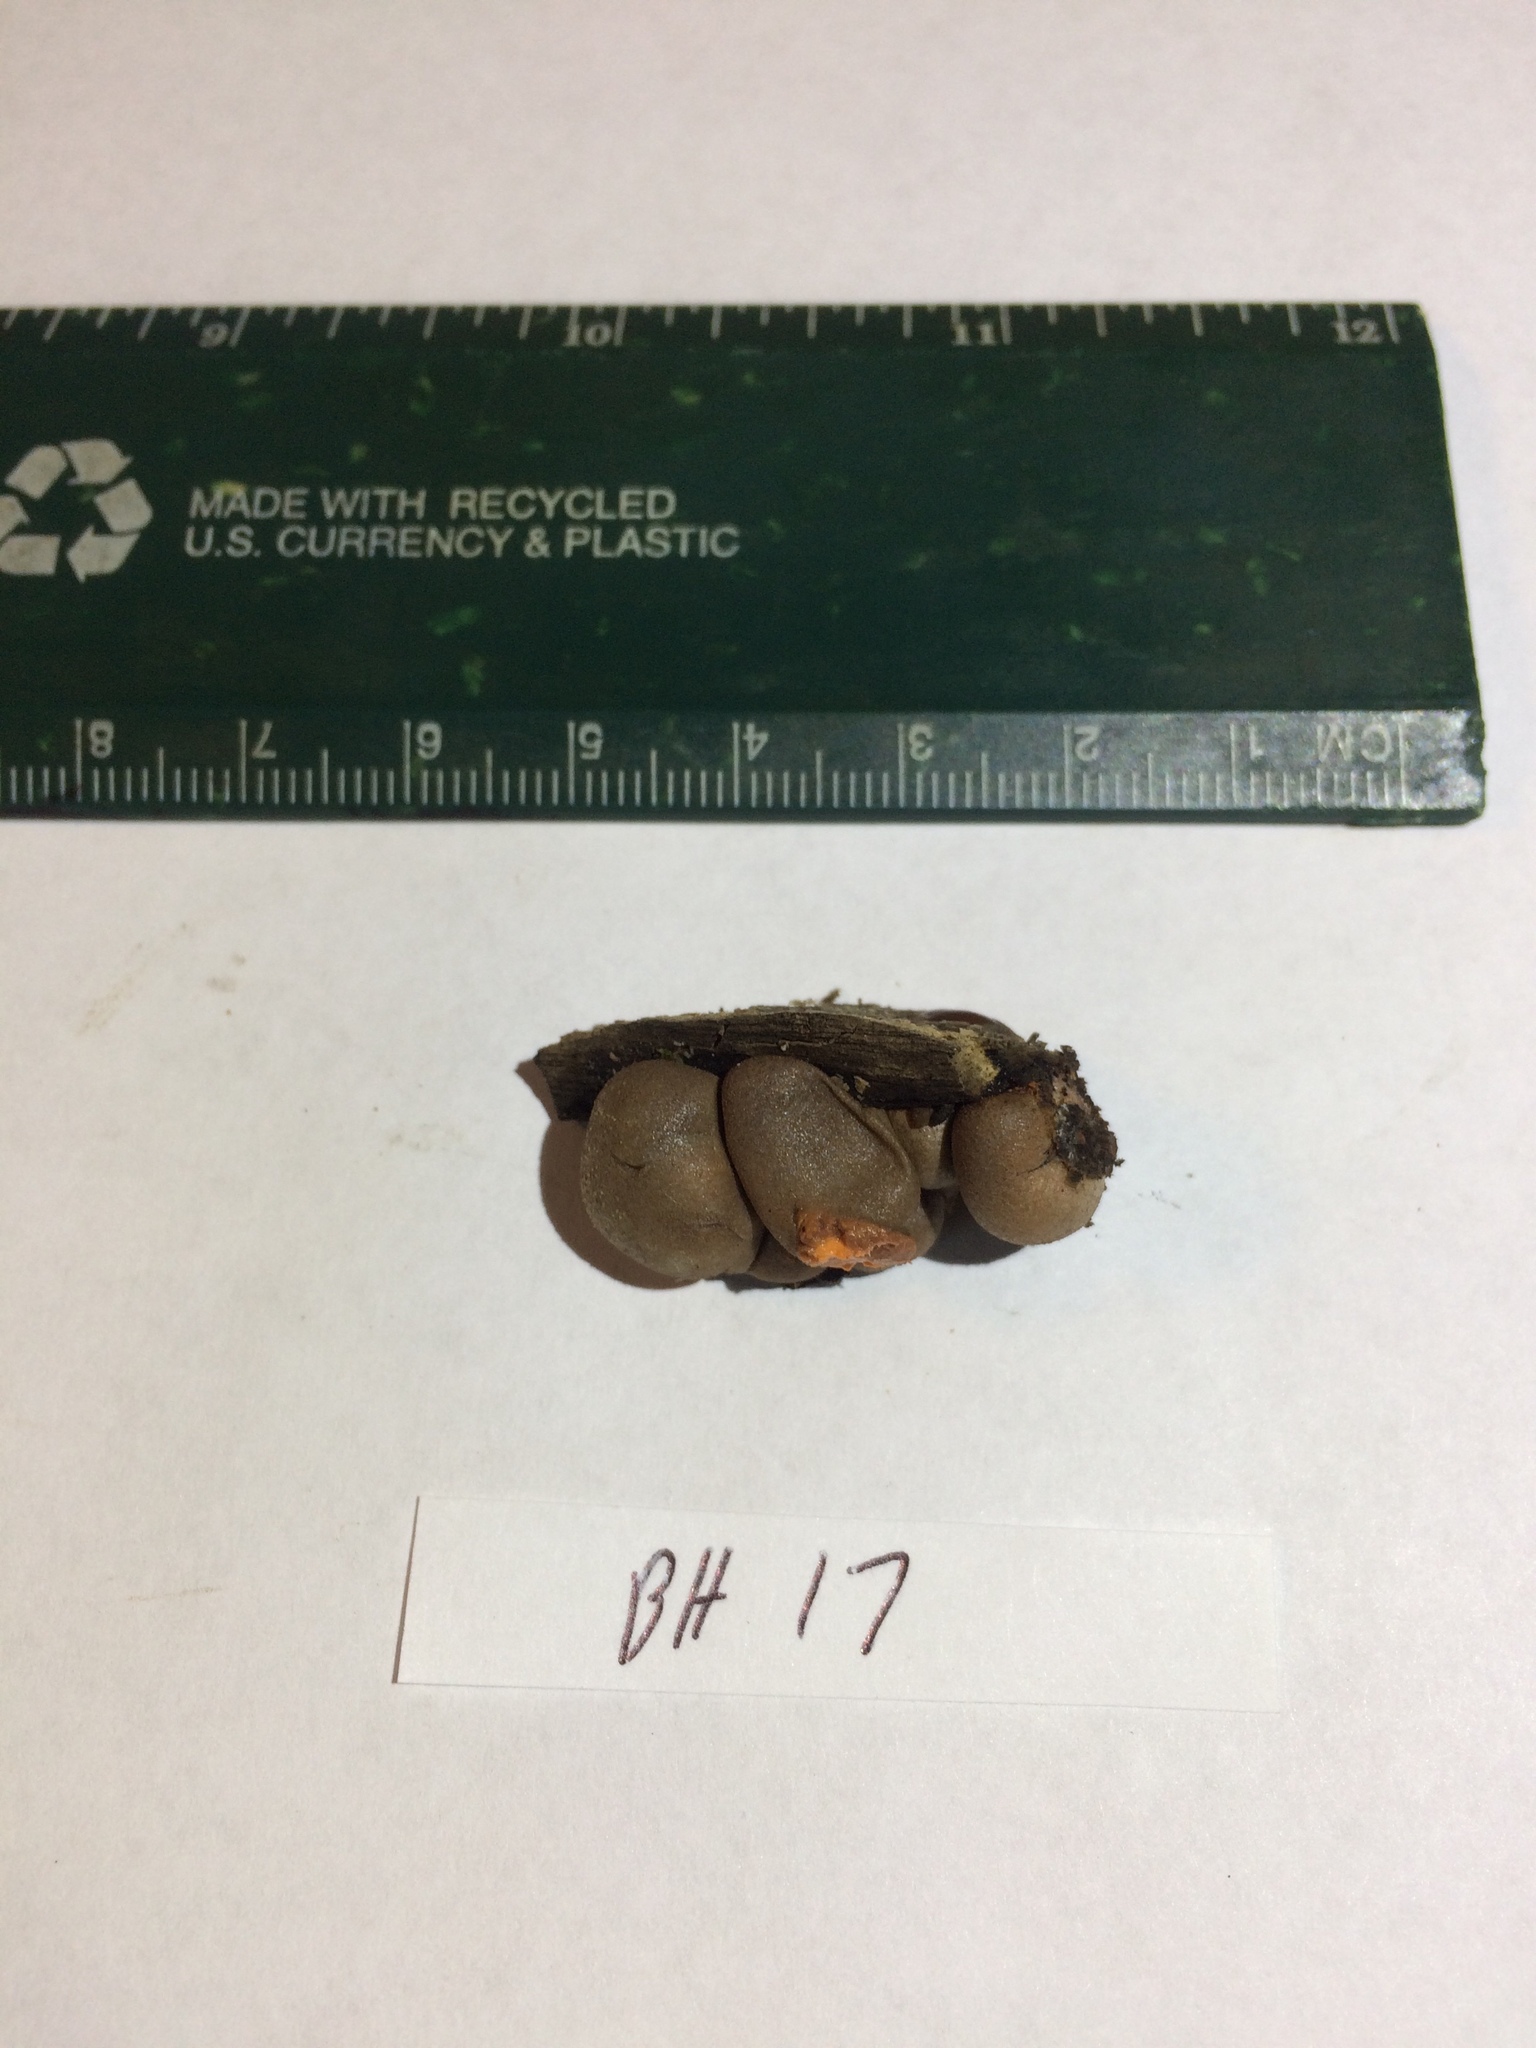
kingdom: Protozoa
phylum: Mycetozoa
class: Myxomycetes
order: Cribrariales
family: Tubiferaceae
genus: Lycogala
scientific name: Lycogala epidendrum
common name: Wolf's milk
